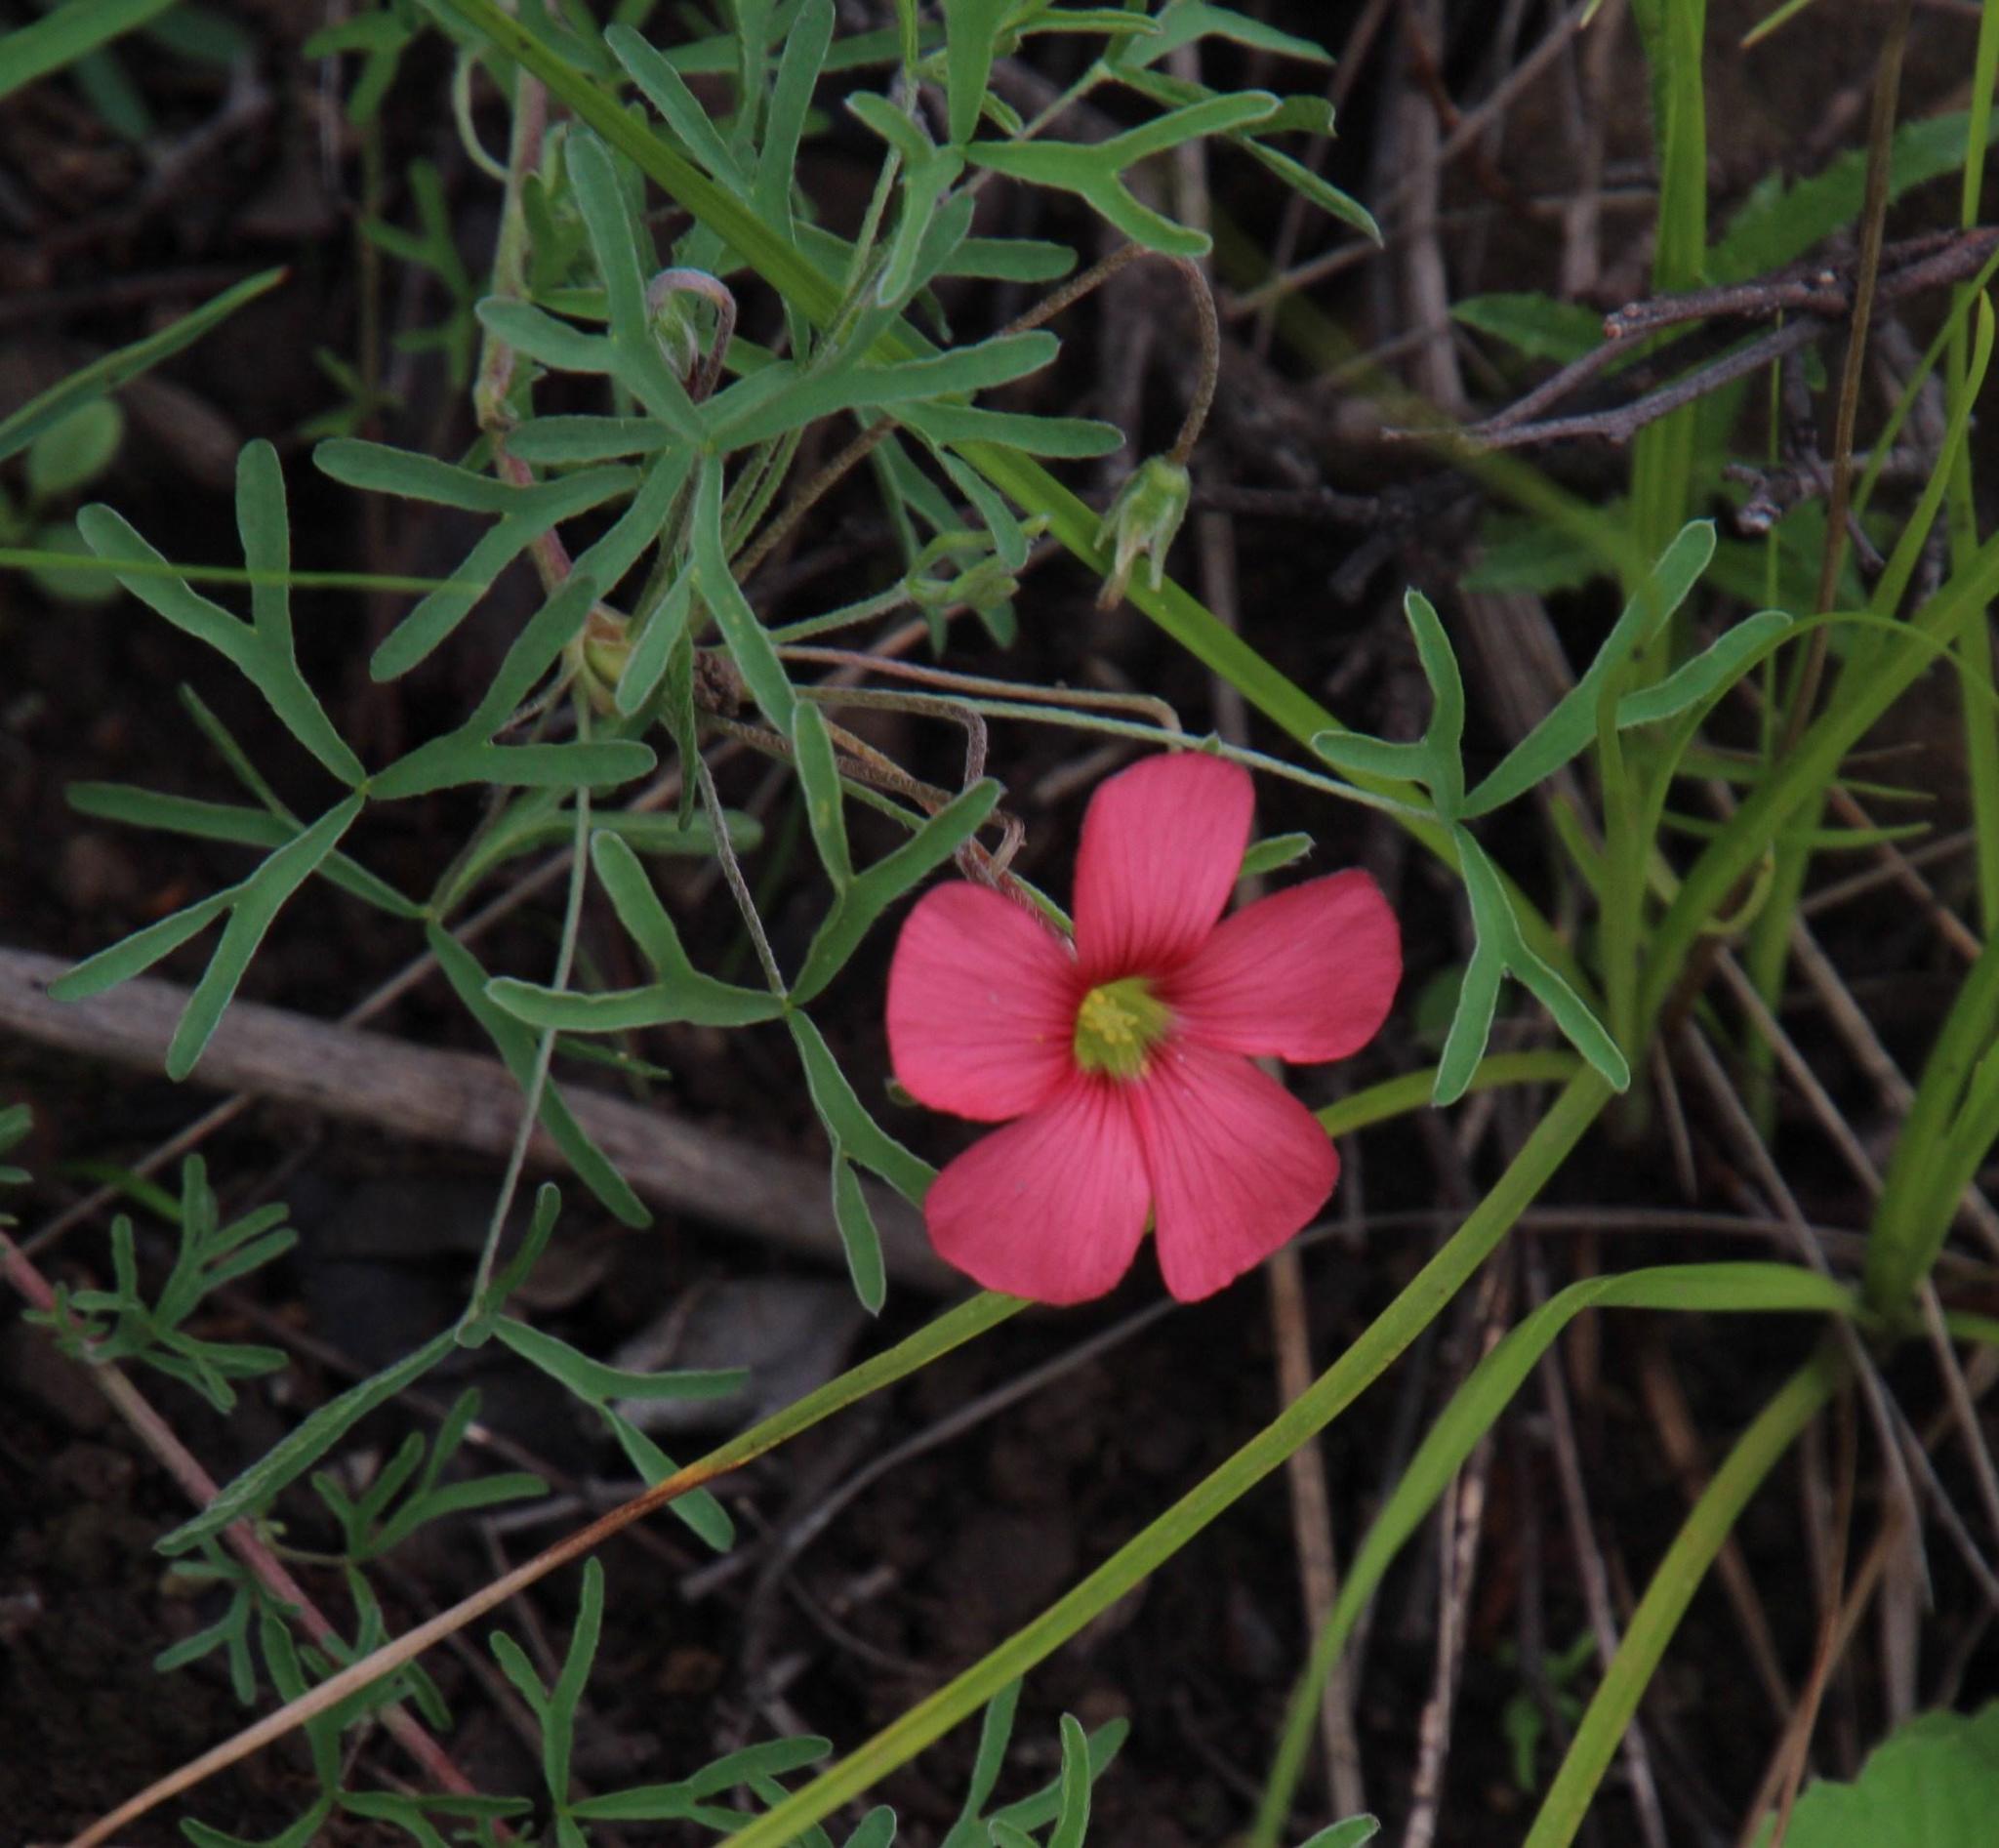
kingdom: Plantae
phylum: Tracheophyta
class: Magnoliopsida
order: Oxalidales
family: Oxalidaceae
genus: Oxalis
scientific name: Oxalis bifurca
